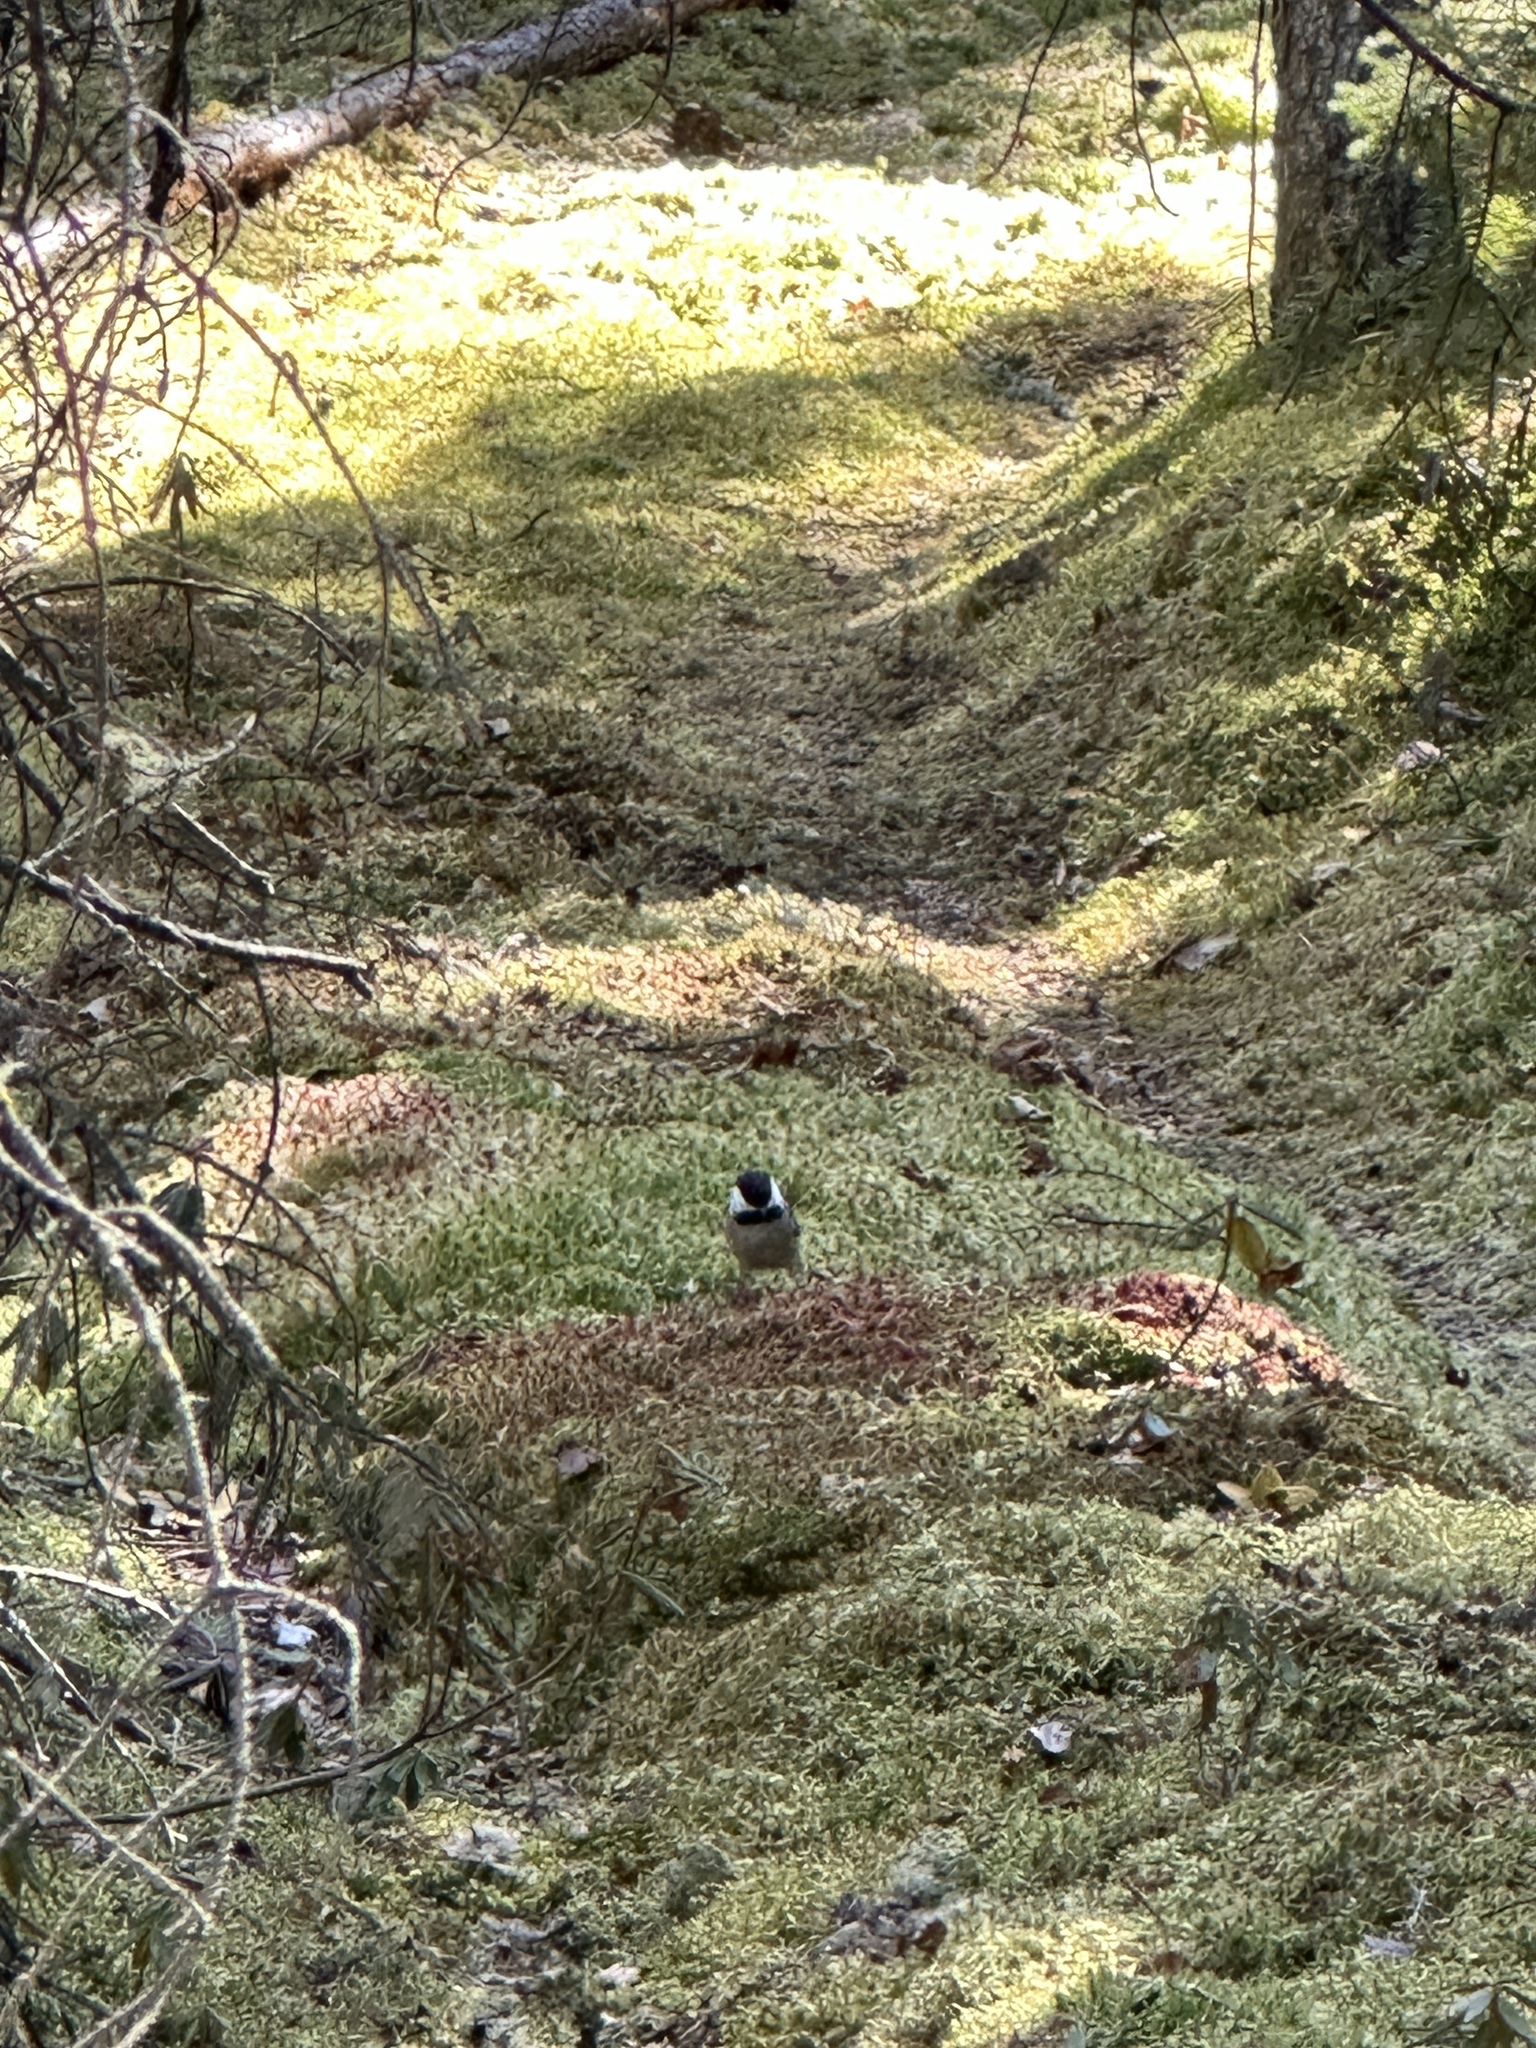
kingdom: Animalia
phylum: Chordata
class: Aves
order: Passeriformes
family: Paridae
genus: Poecile
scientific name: Poecile atricapillus
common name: Black-capped chickadee
